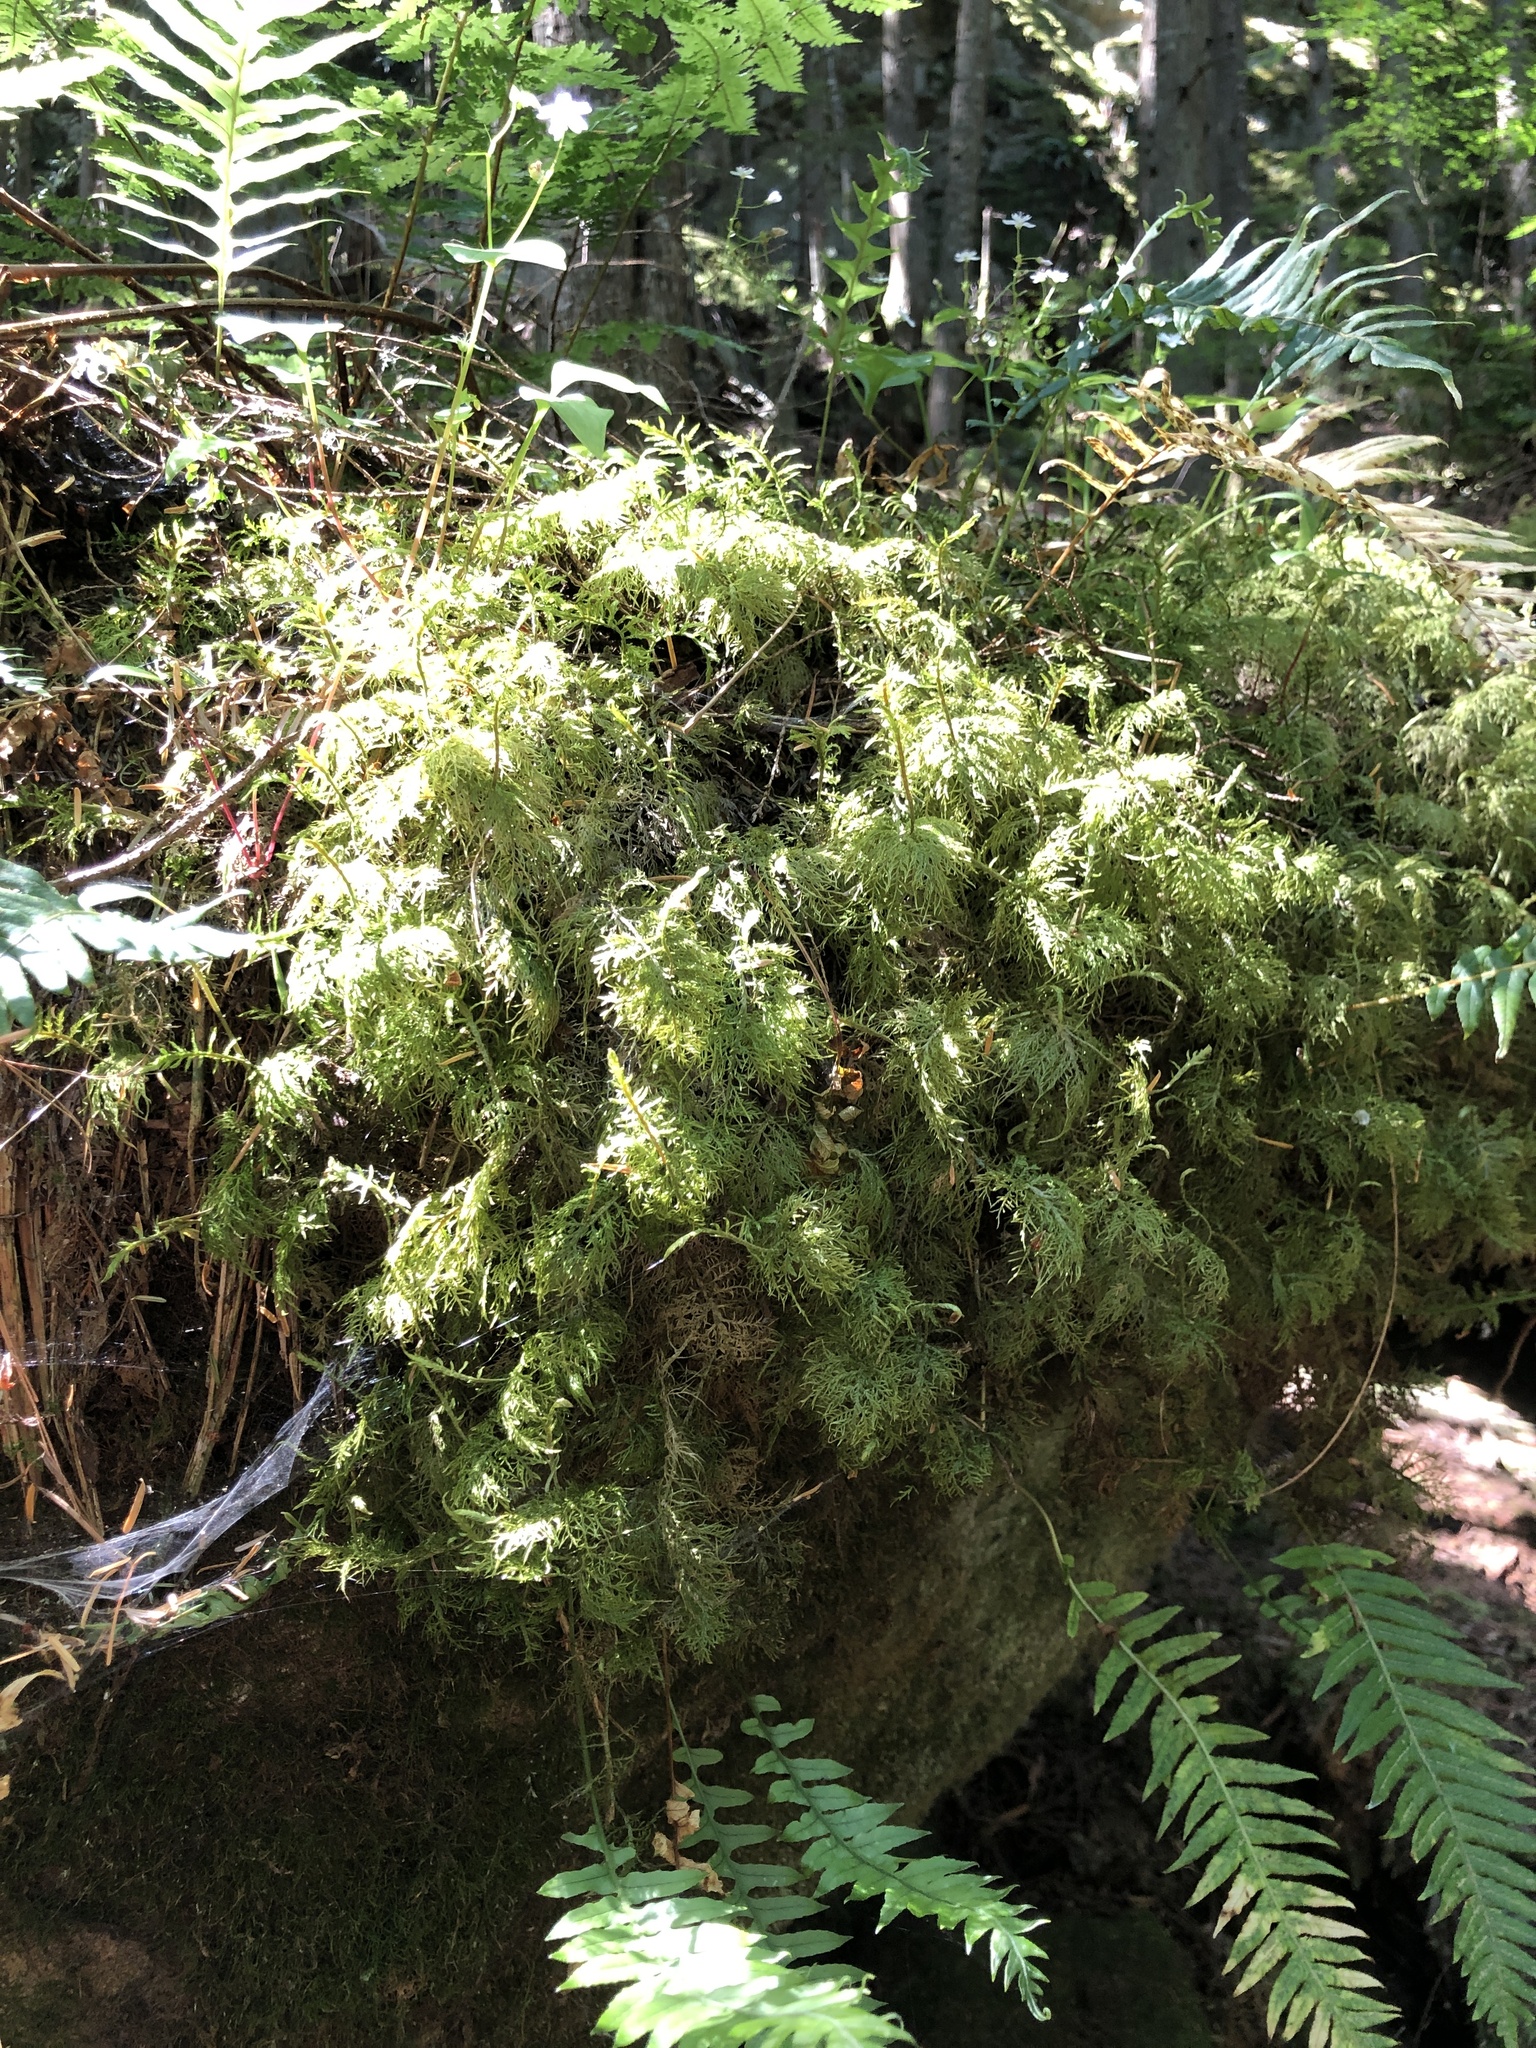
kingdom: Plantae
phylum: Bryophyta
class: Bryopsida
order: Hypnales
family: Hylocomiaceae
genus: Hylocomium
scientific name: Hylocomium splendens
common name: Stairstep moss
